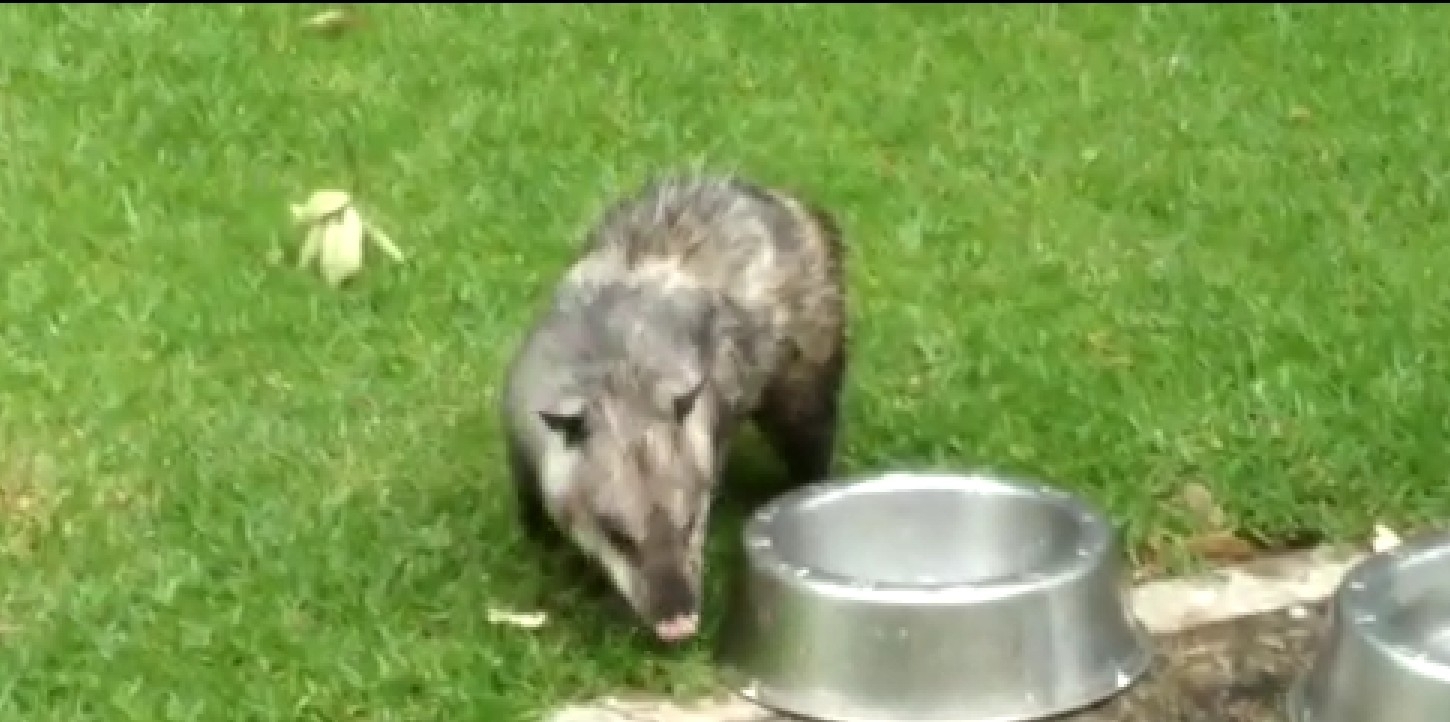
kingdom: Animalia
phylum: Chordata
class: Mammalia
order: Didelphimorphia
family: Didelphidae
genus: Didelphis
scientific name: Didelphis virginiana
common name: Virginia opossum
